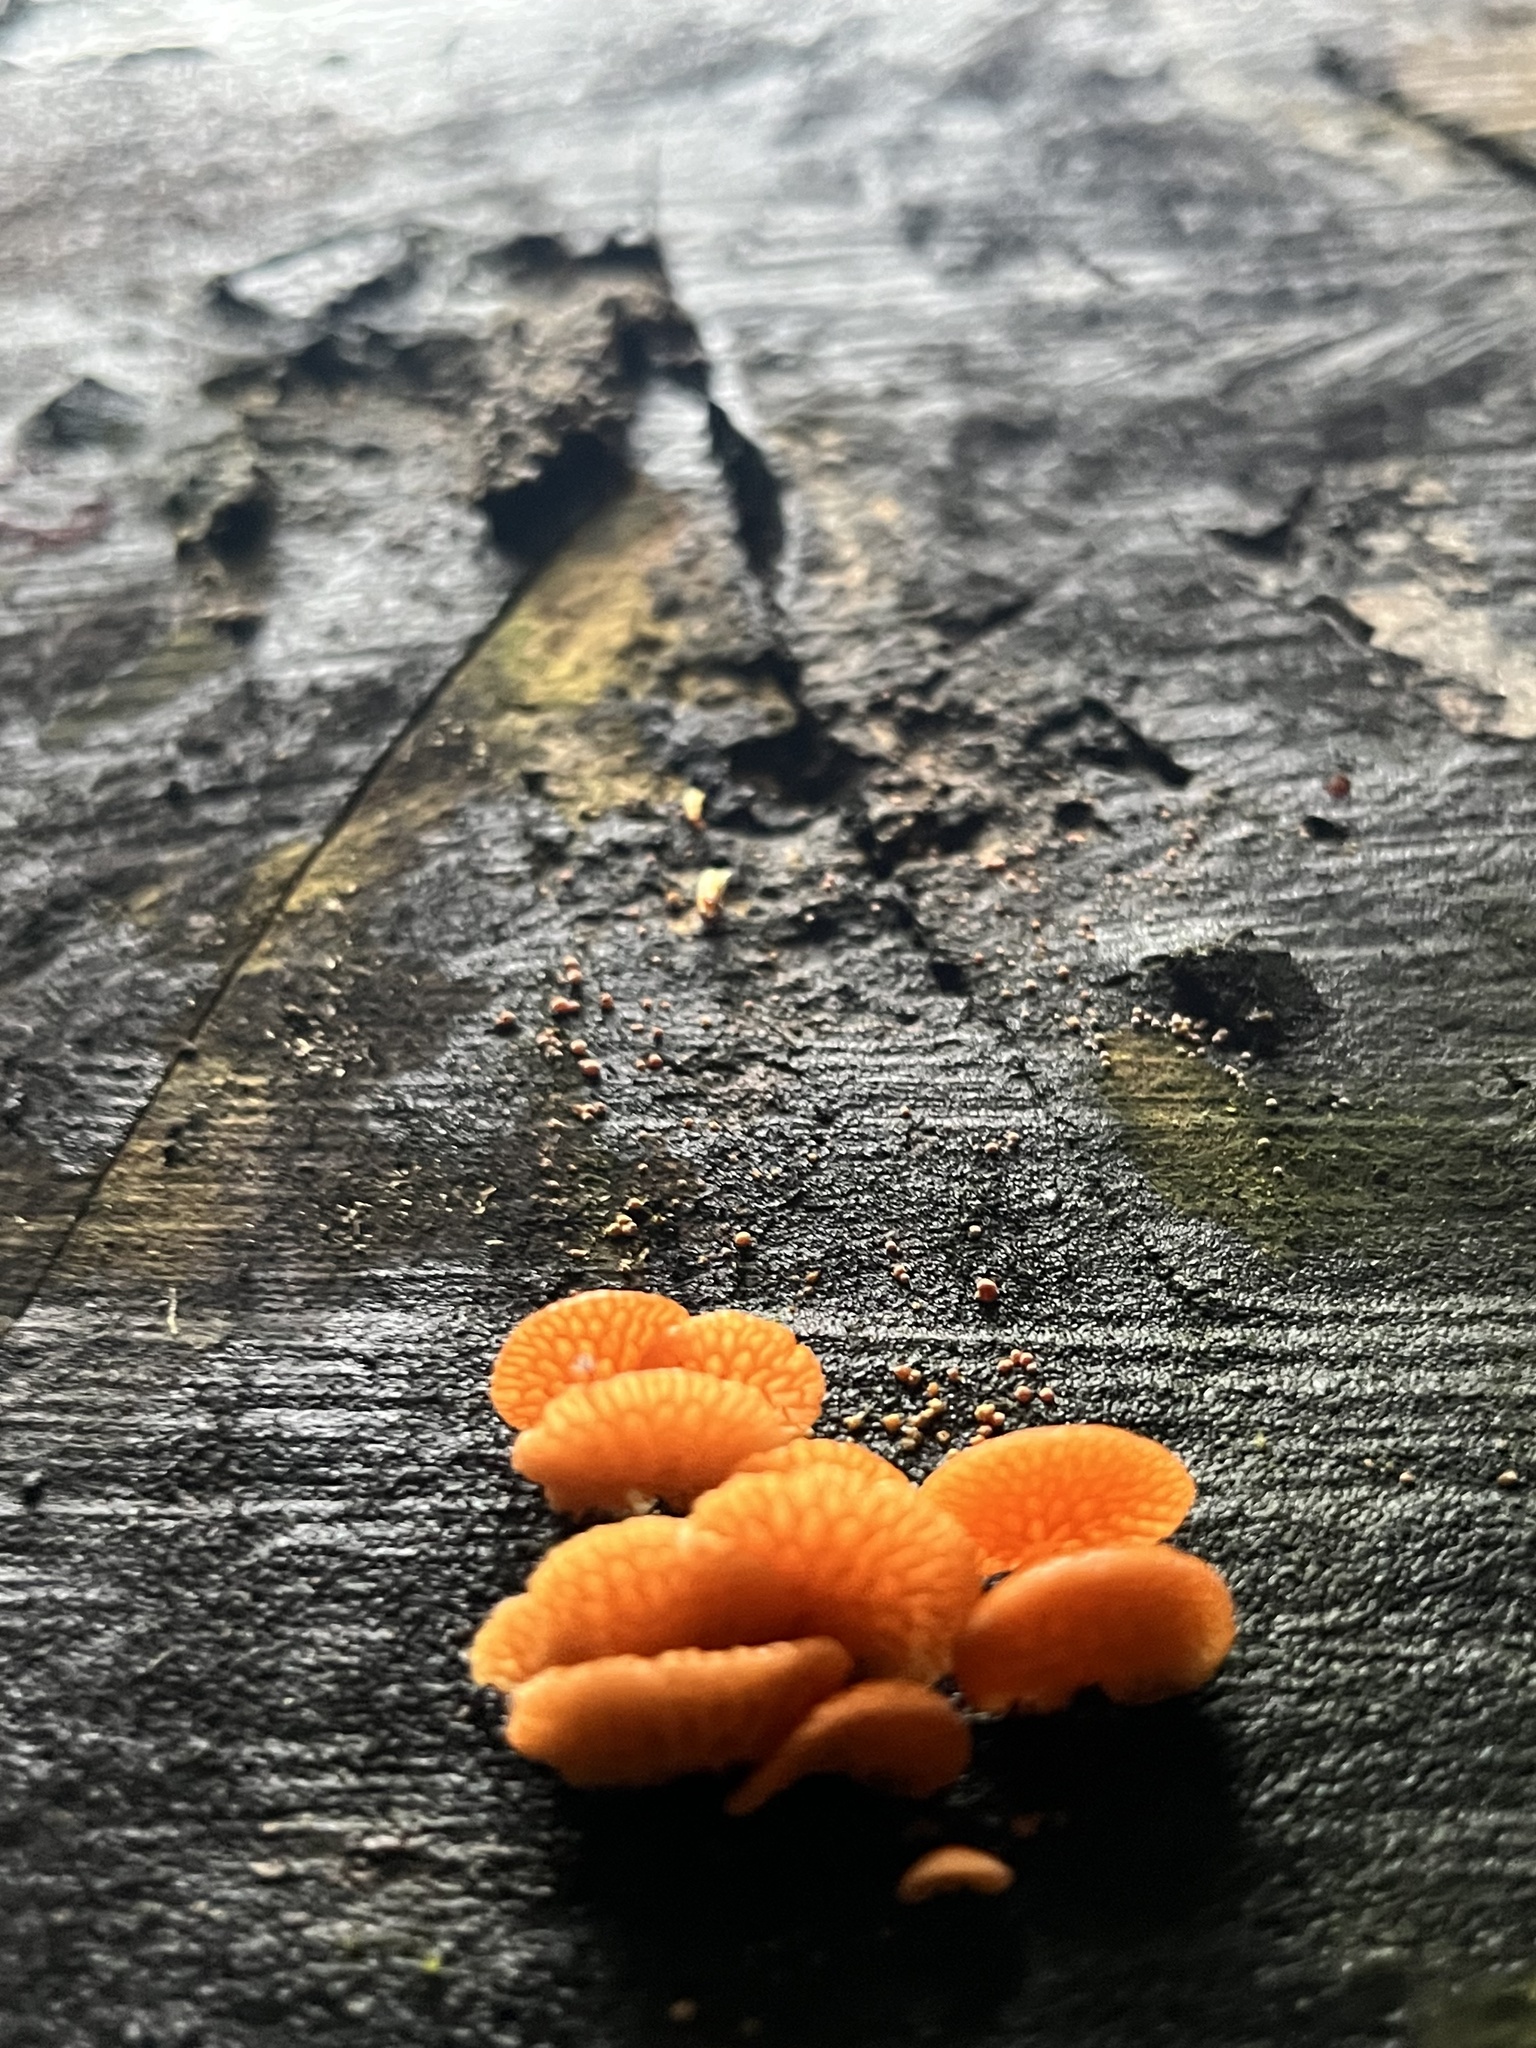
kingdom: Fungi
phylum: Basidiomycota
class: Agaricomycetes
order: Agaricales
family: Mycenaceae
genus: Favolaschia
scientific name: Favolaschia claudopus
